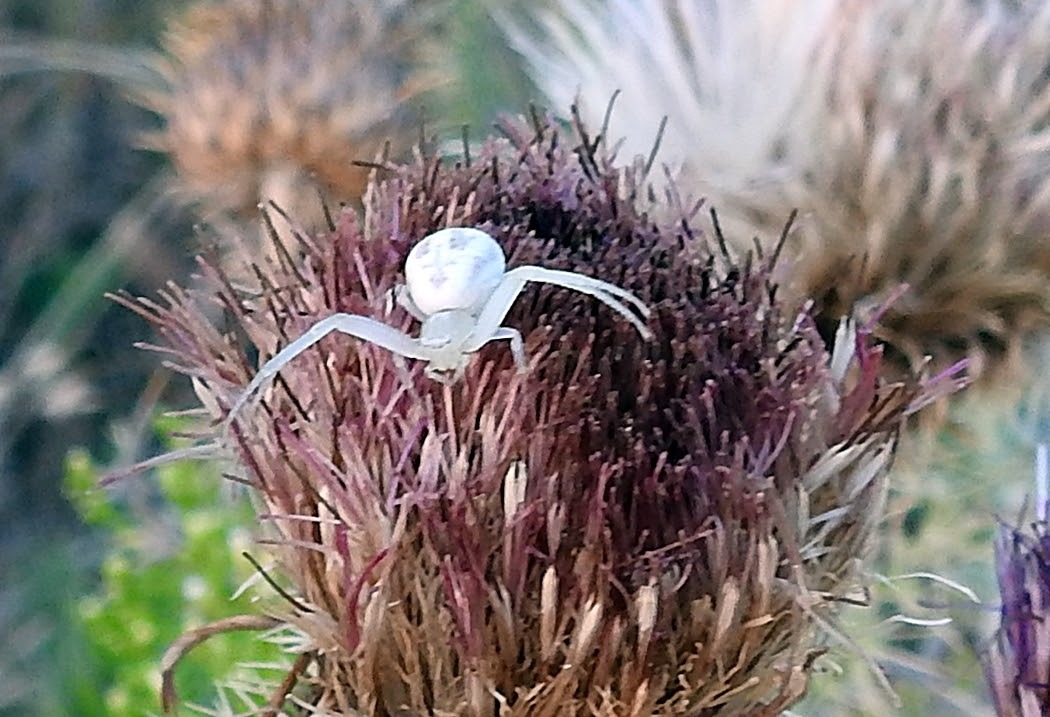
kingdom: Animalia
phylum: Arthropoda
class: Arachnida
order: Araneae
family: Thomisidae
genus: Misumena
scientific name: Misumena vatia
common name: Goldenrod crab spider
